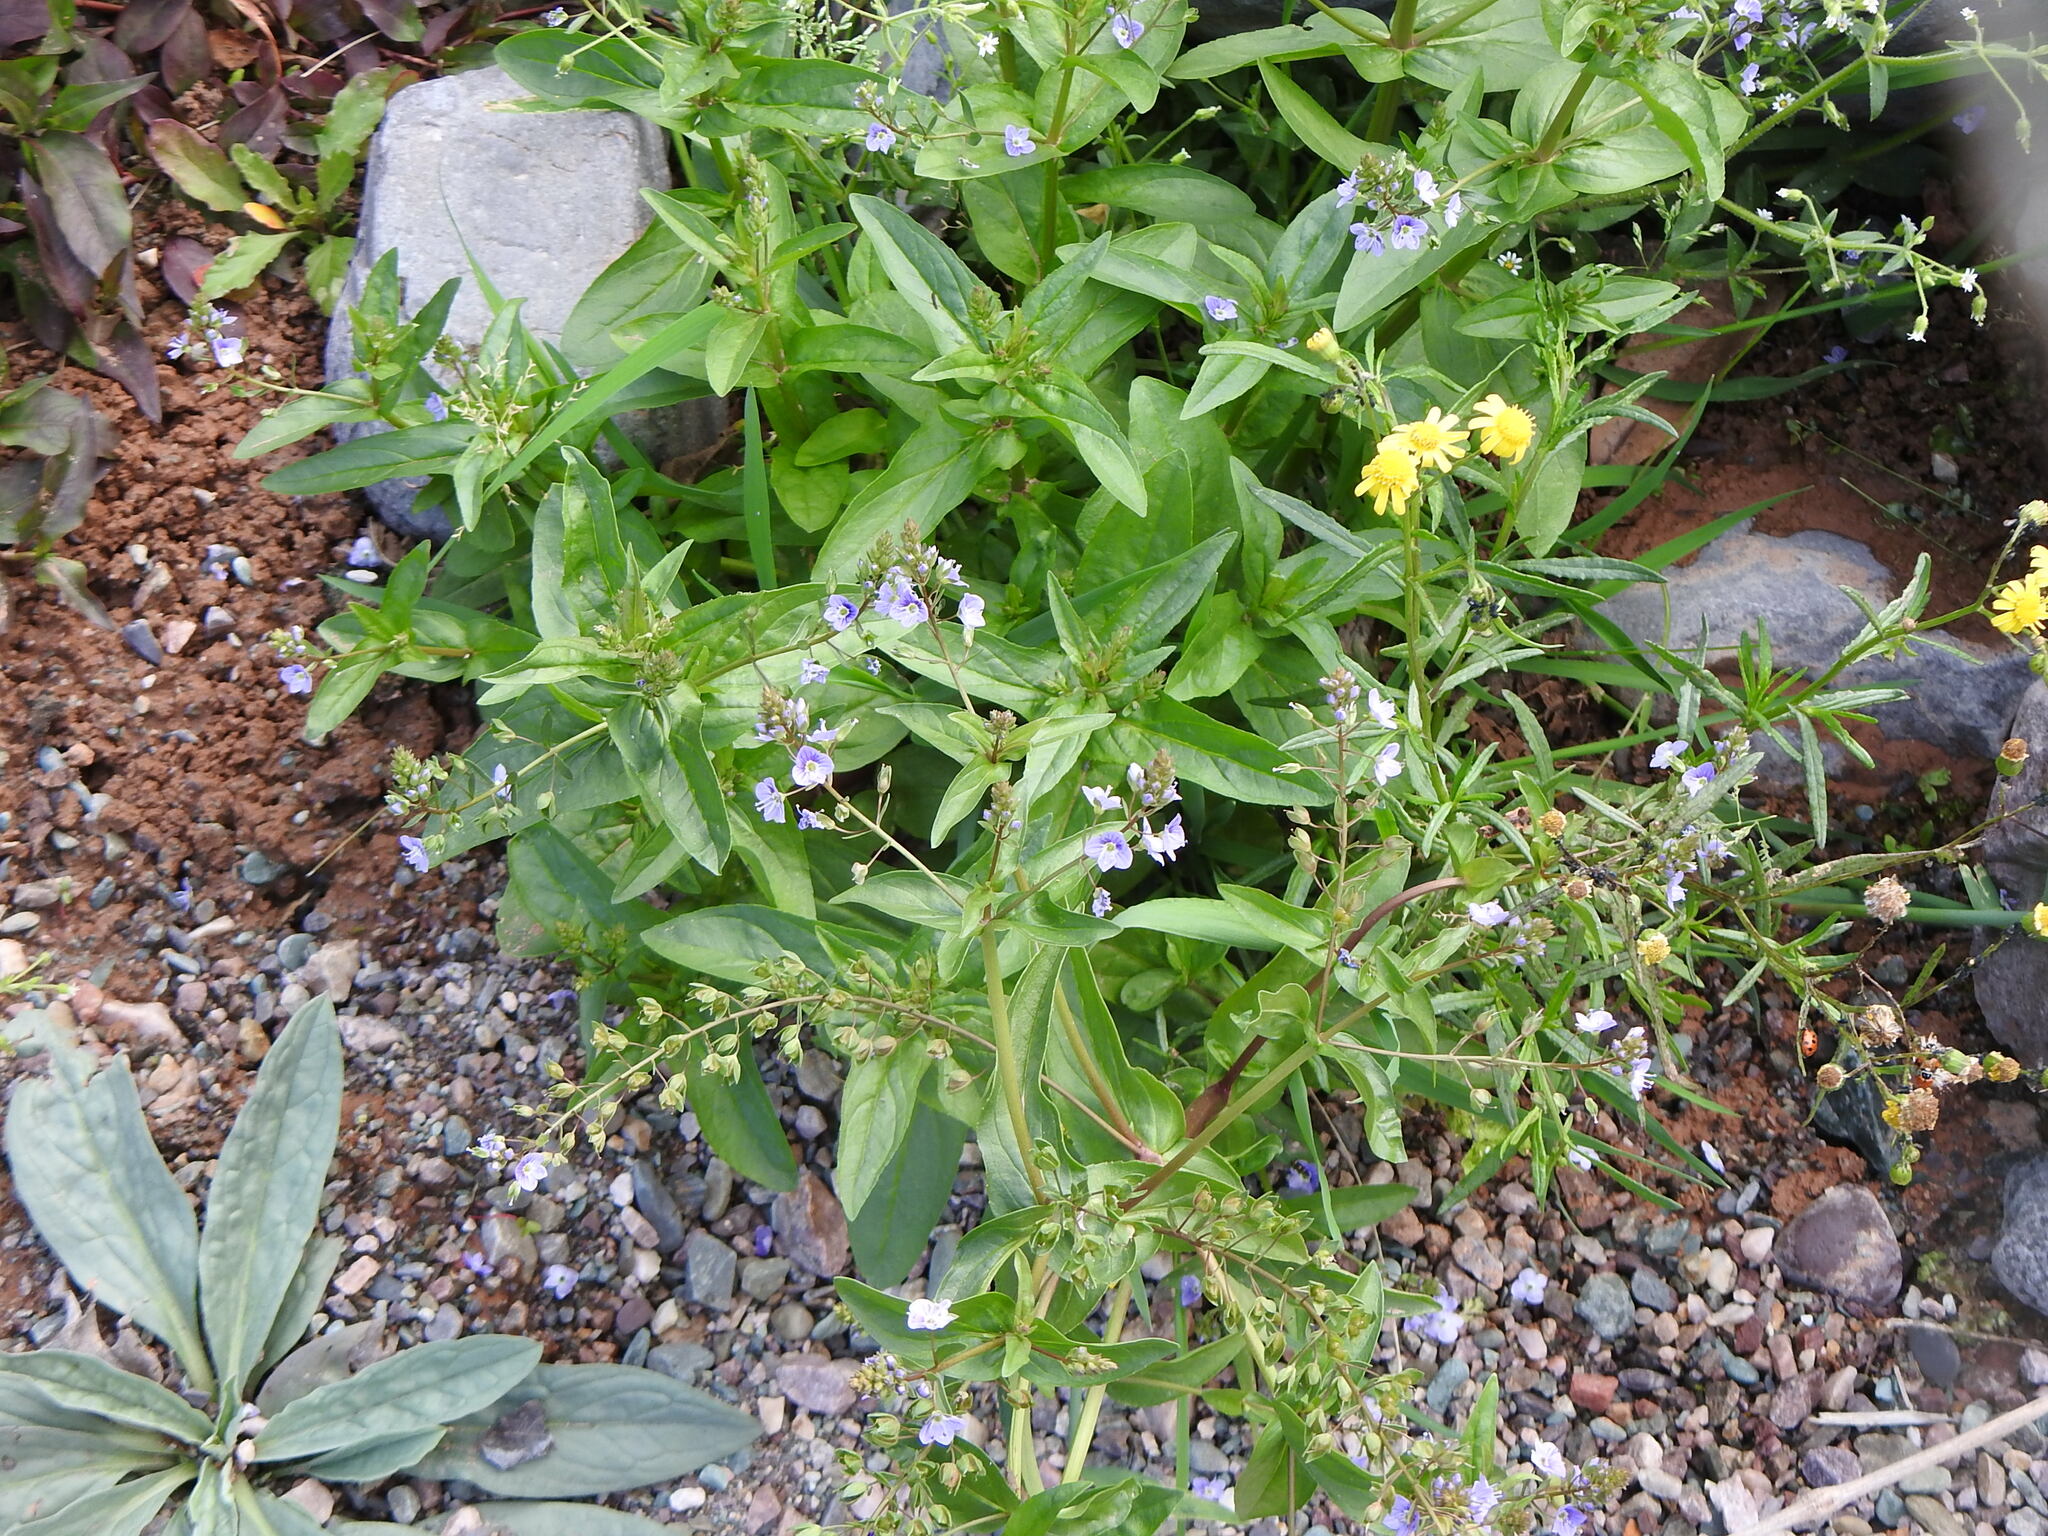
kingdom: Plantae
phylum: Tracheophyta
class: Magnoliopsida
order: Lamiales
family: Plantaginaceae
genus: Veronica
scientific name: Veronica anagallis-aquatica
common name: Water speedwell
